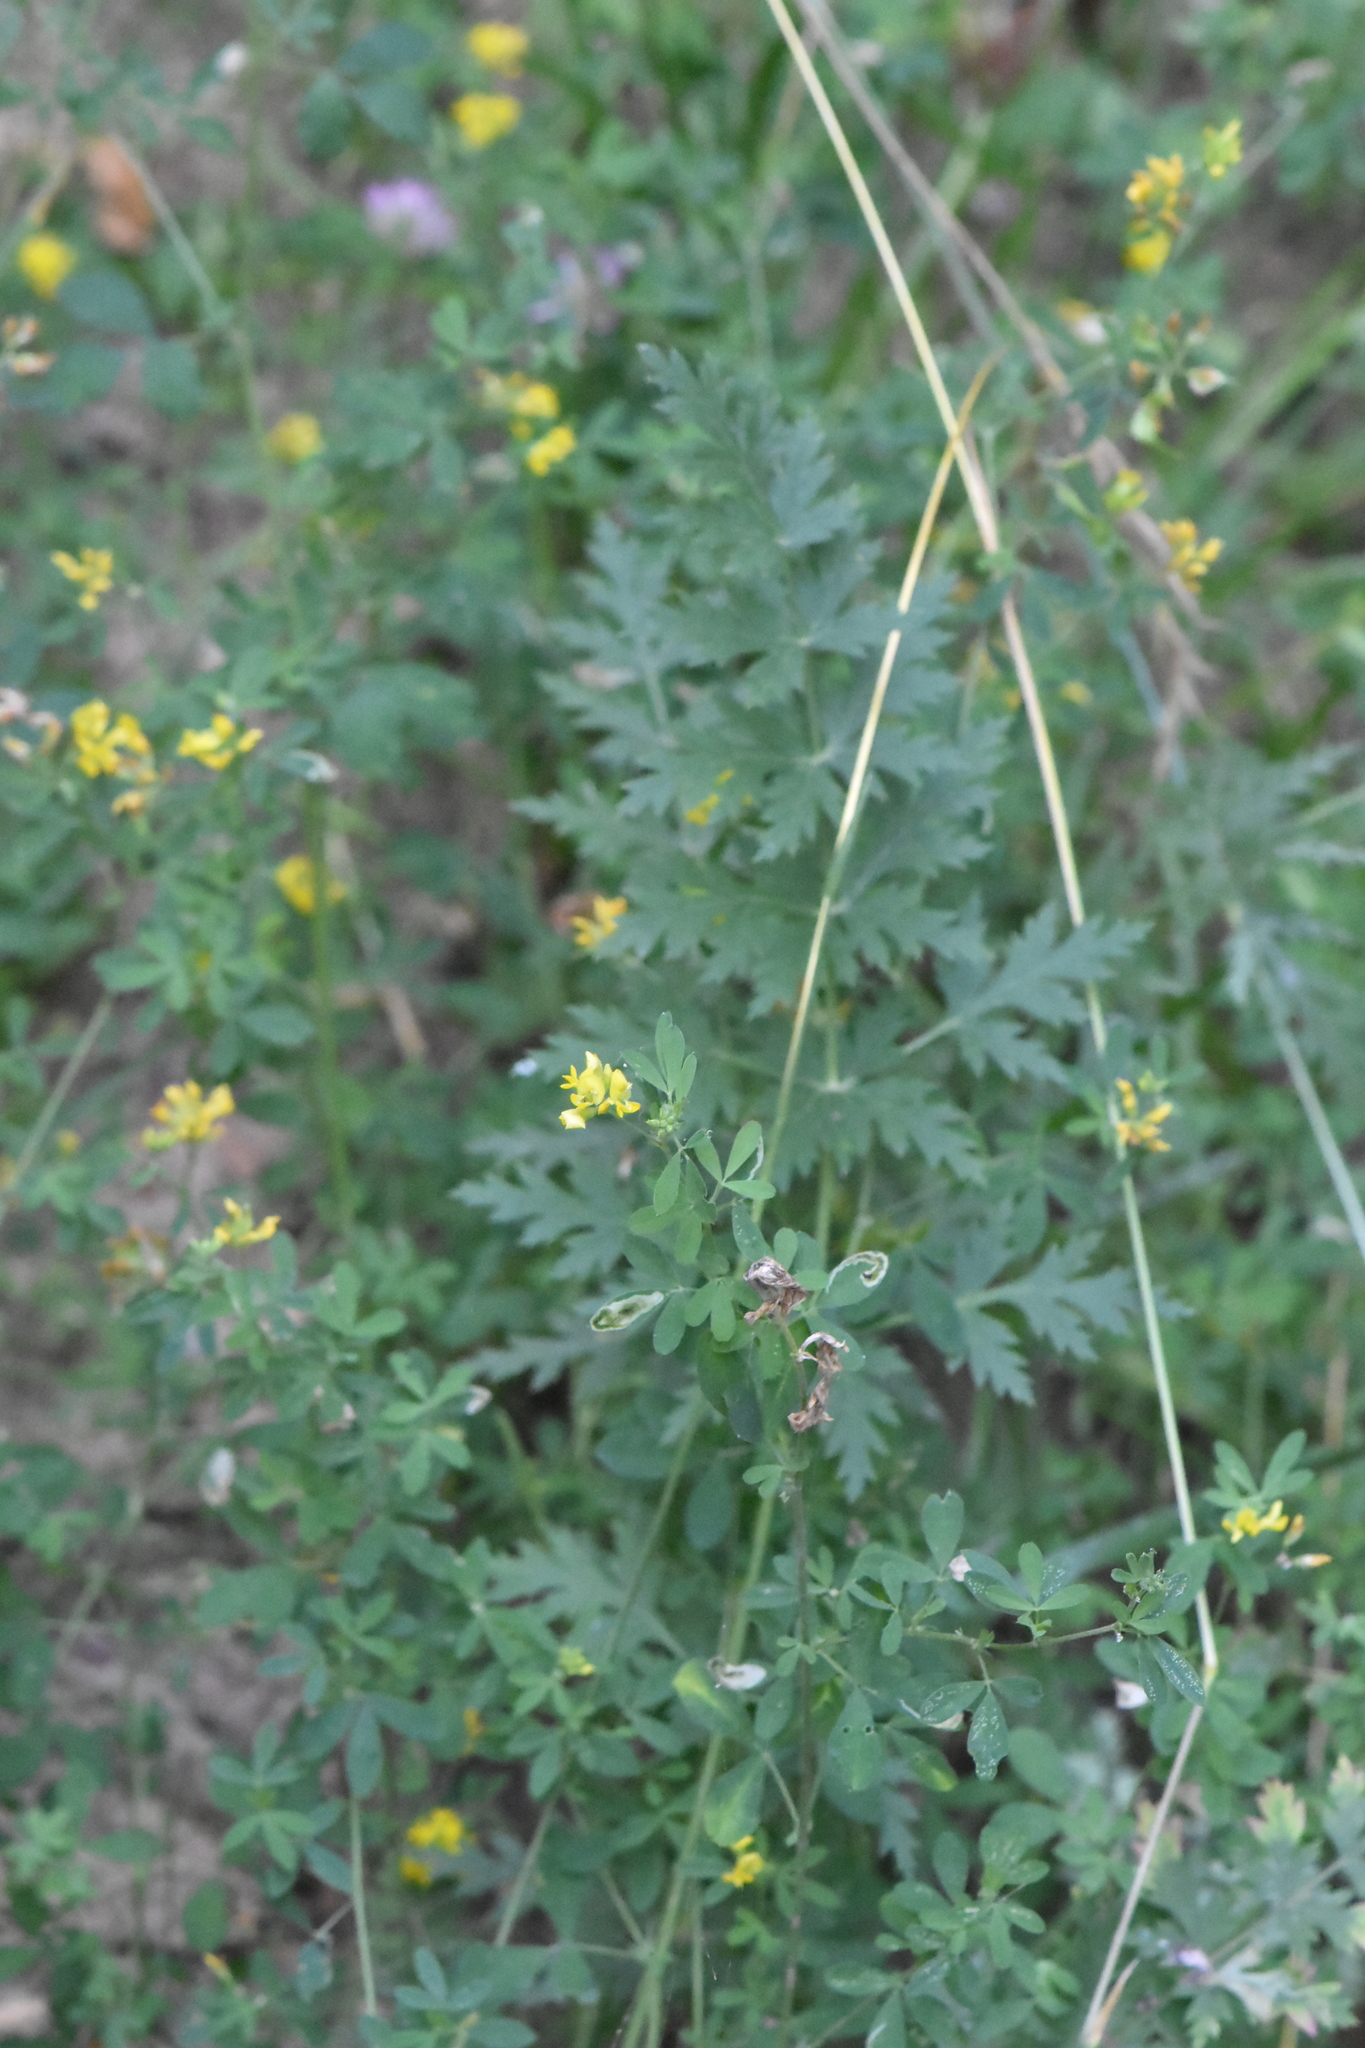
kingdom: Plantae
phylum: Tracheophyta
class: Magnoliopsida
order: Fabales
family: Fabaceae
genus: Medicago
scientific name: Medicago falcata
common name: Sickle medick
